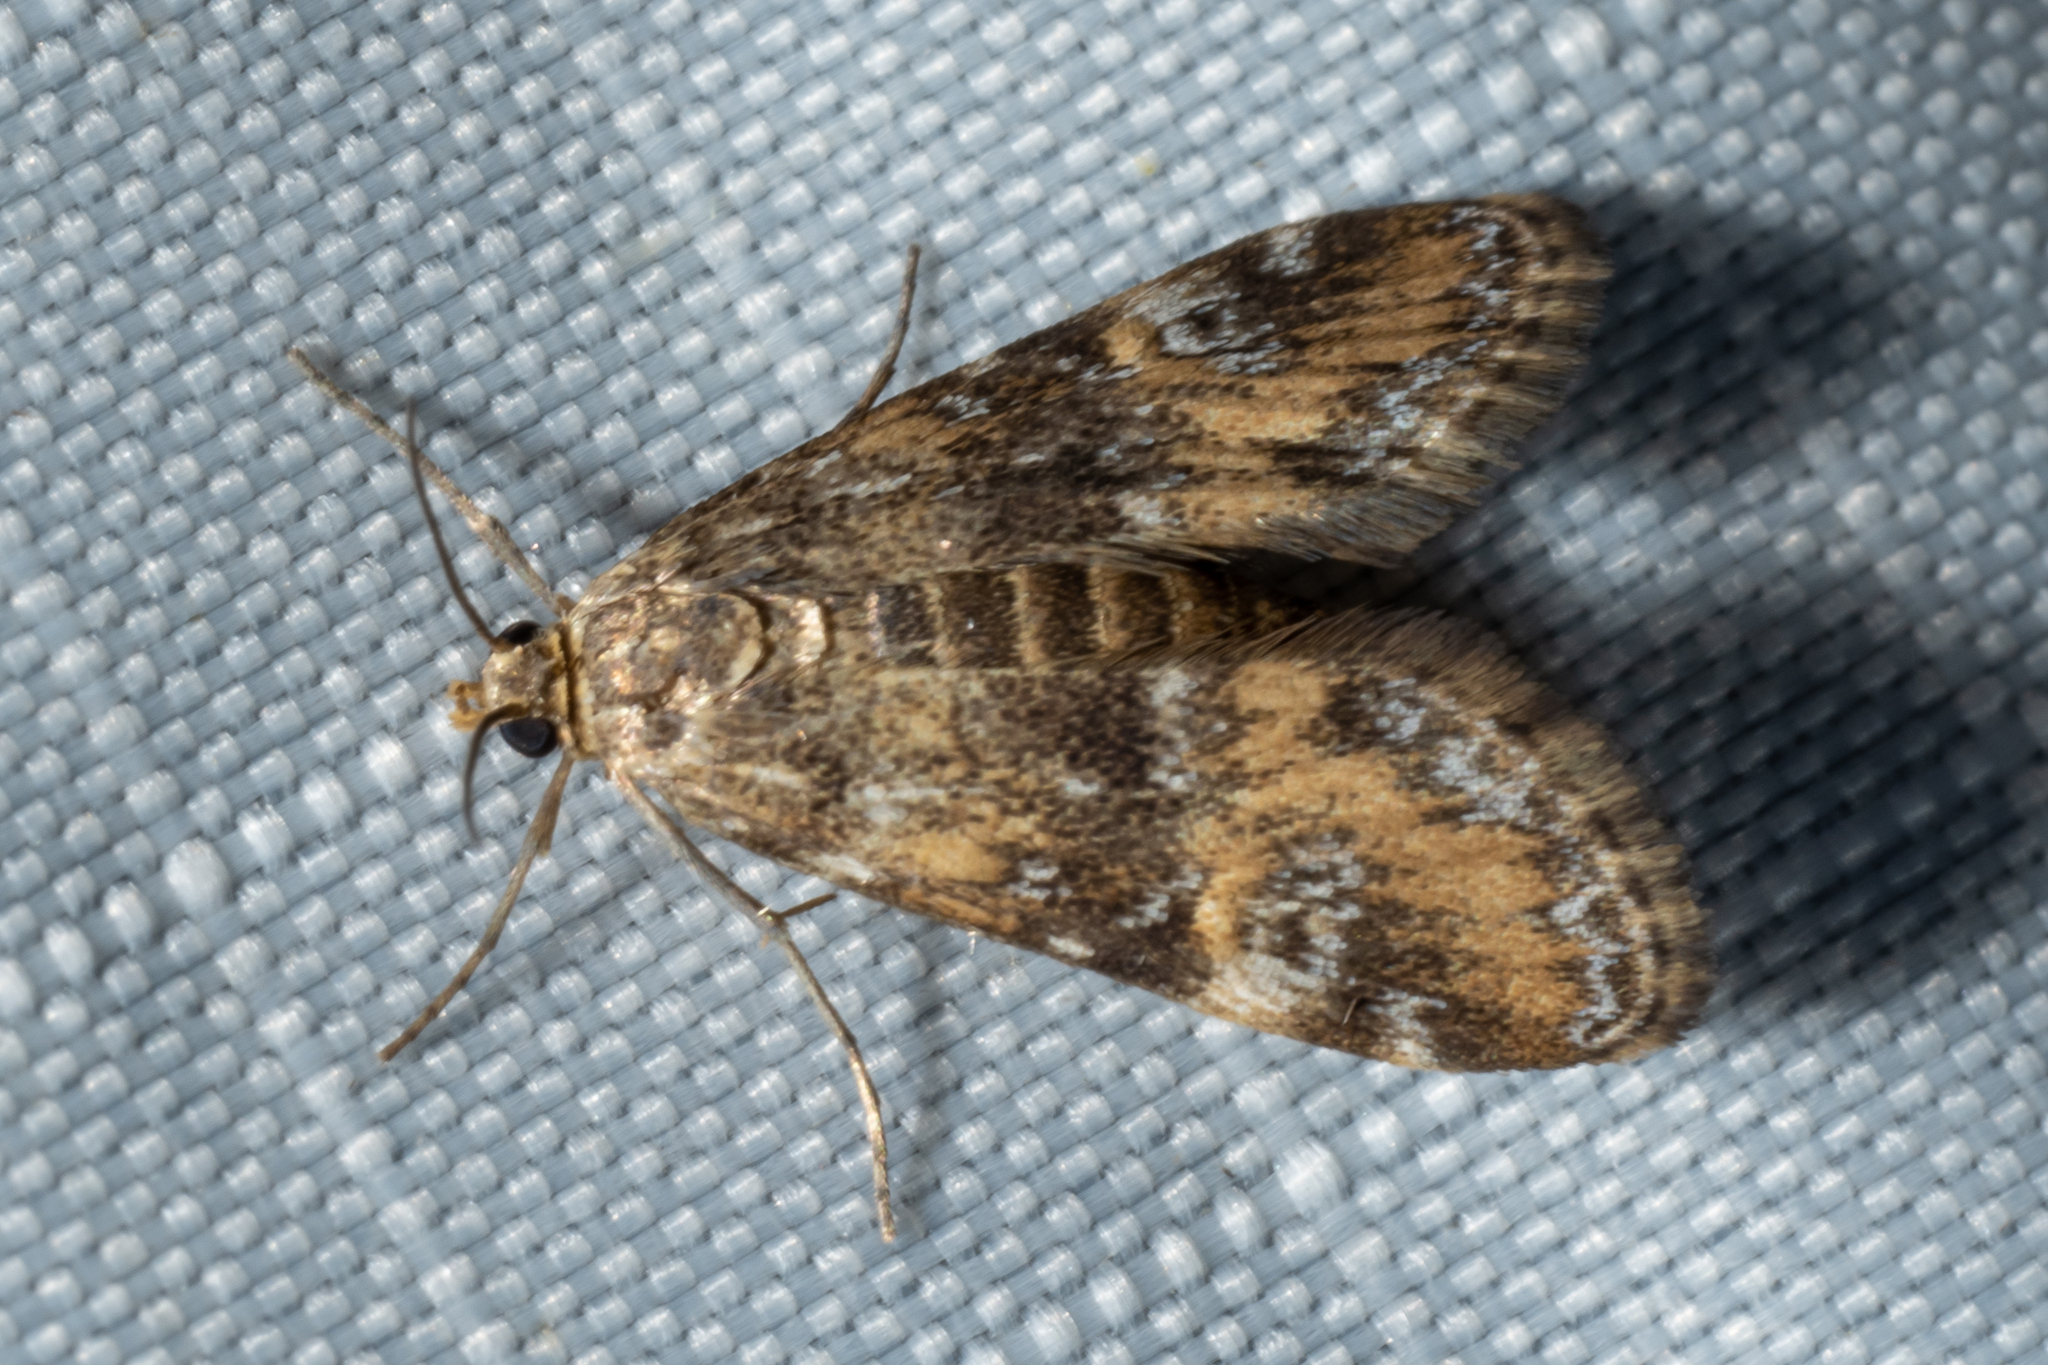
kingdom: Animalia
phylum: Arthropoda
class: Insecta
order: Lepidoptera
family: Crambidae
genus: Elophila
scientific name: Elophila obliteralis
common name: Waterlily leafcutter moth
